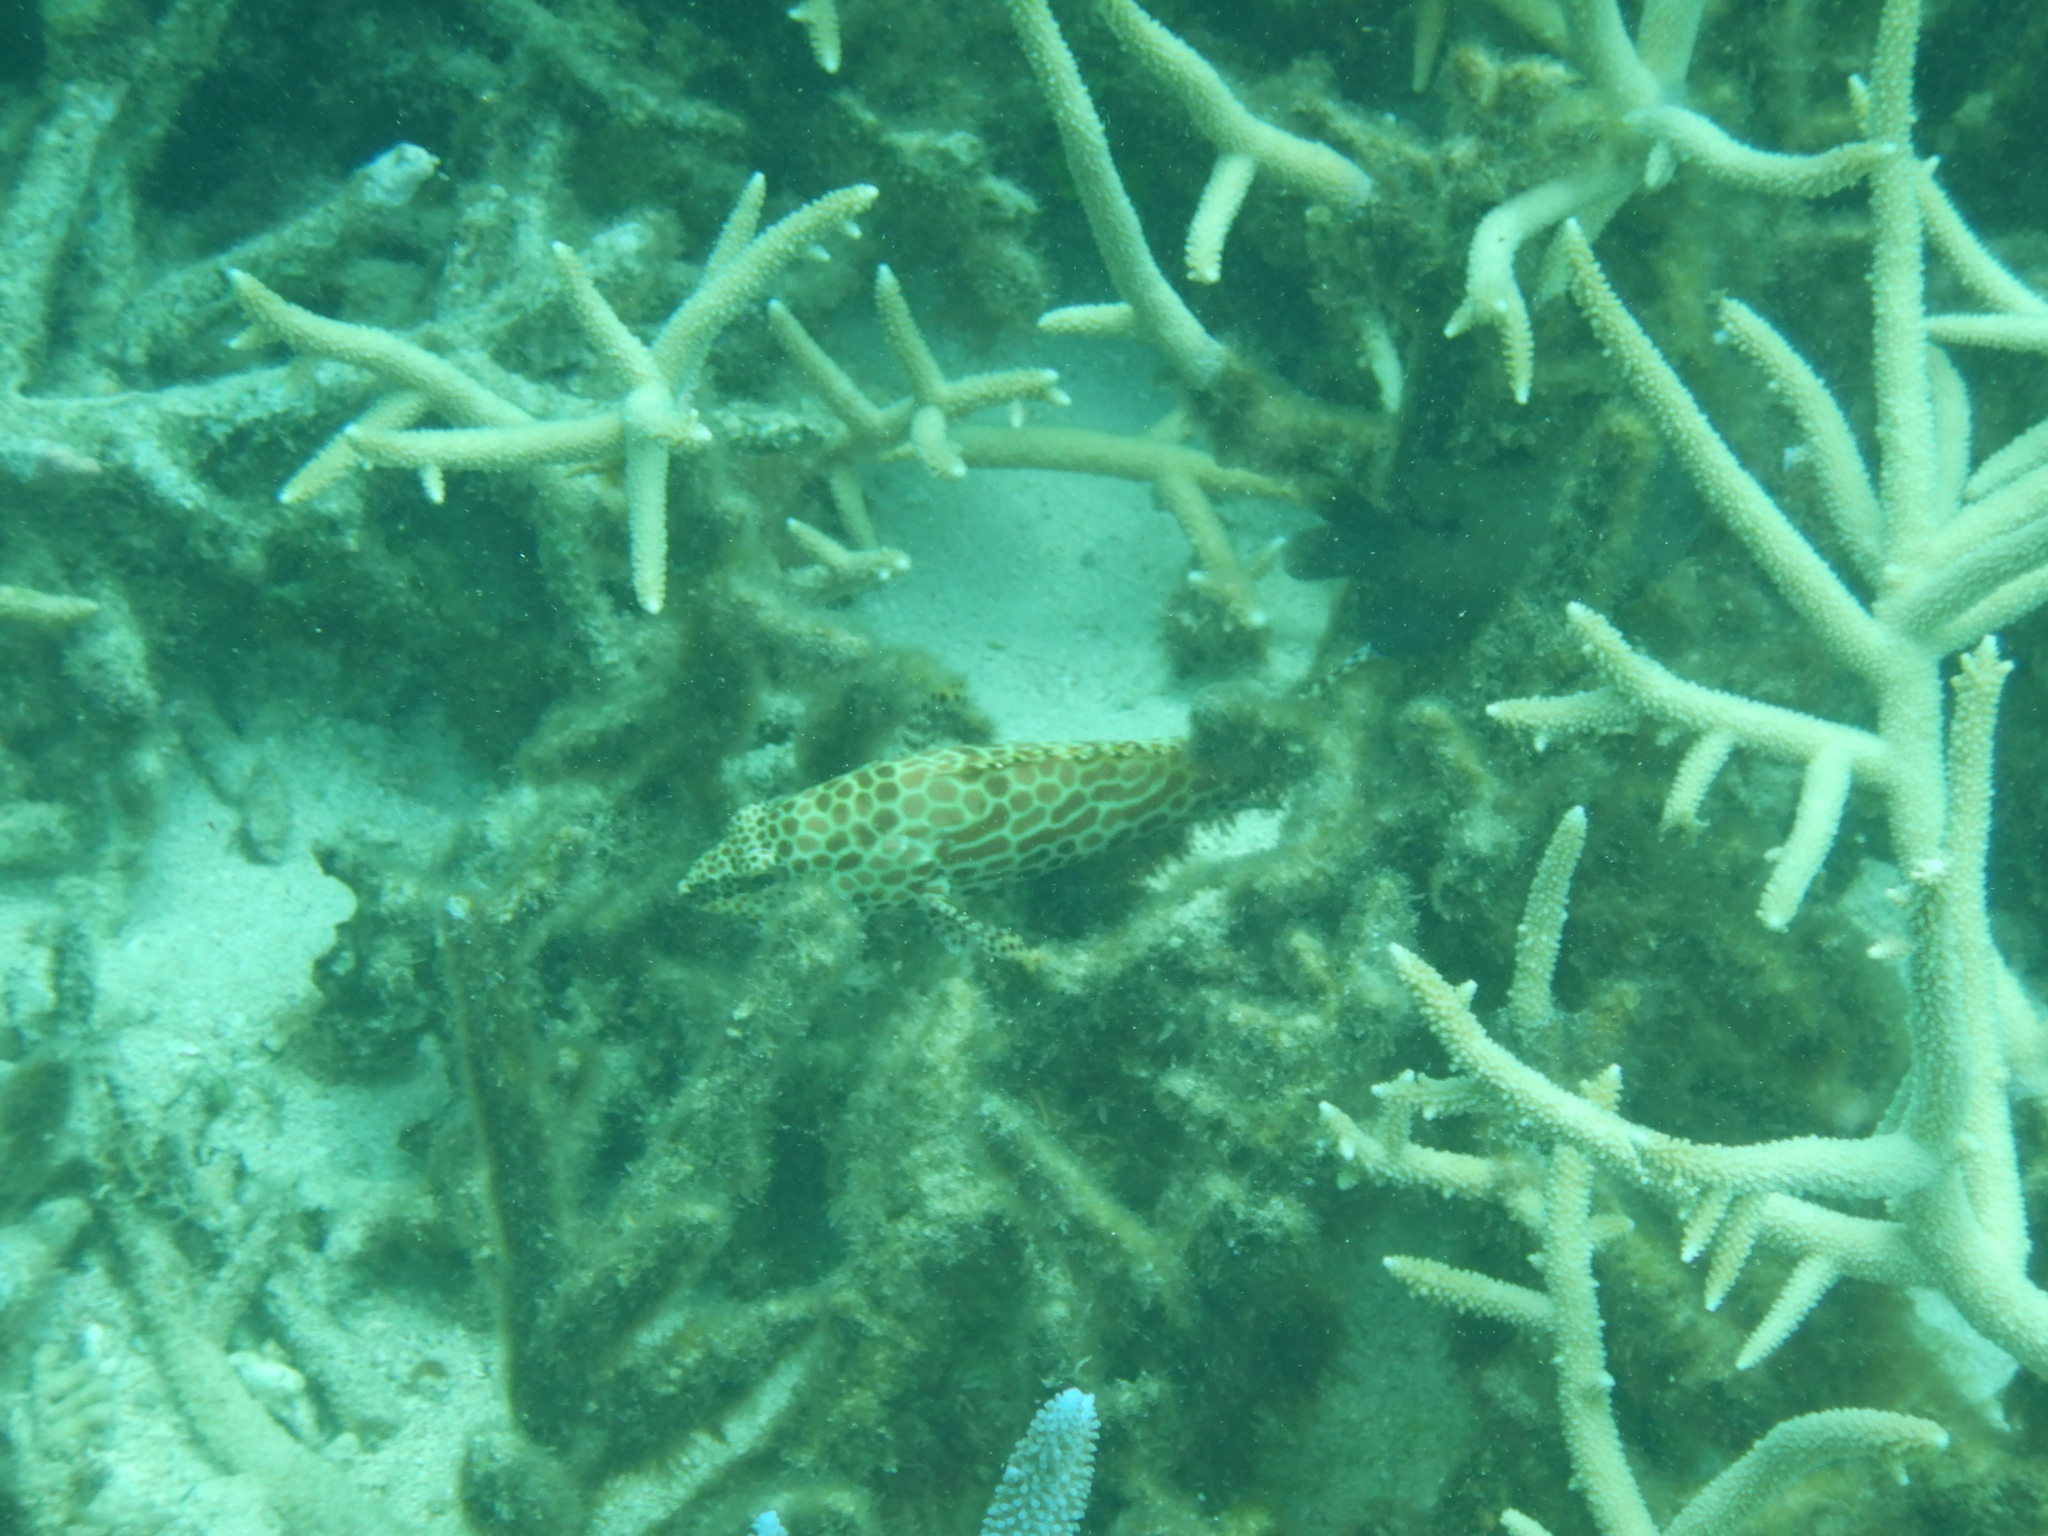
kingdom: Animalia
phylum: Chordata
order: Perciformes
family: Serranidae
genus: Epinephelus
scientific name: Epinephelus merra
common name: Honeycomb grouper
